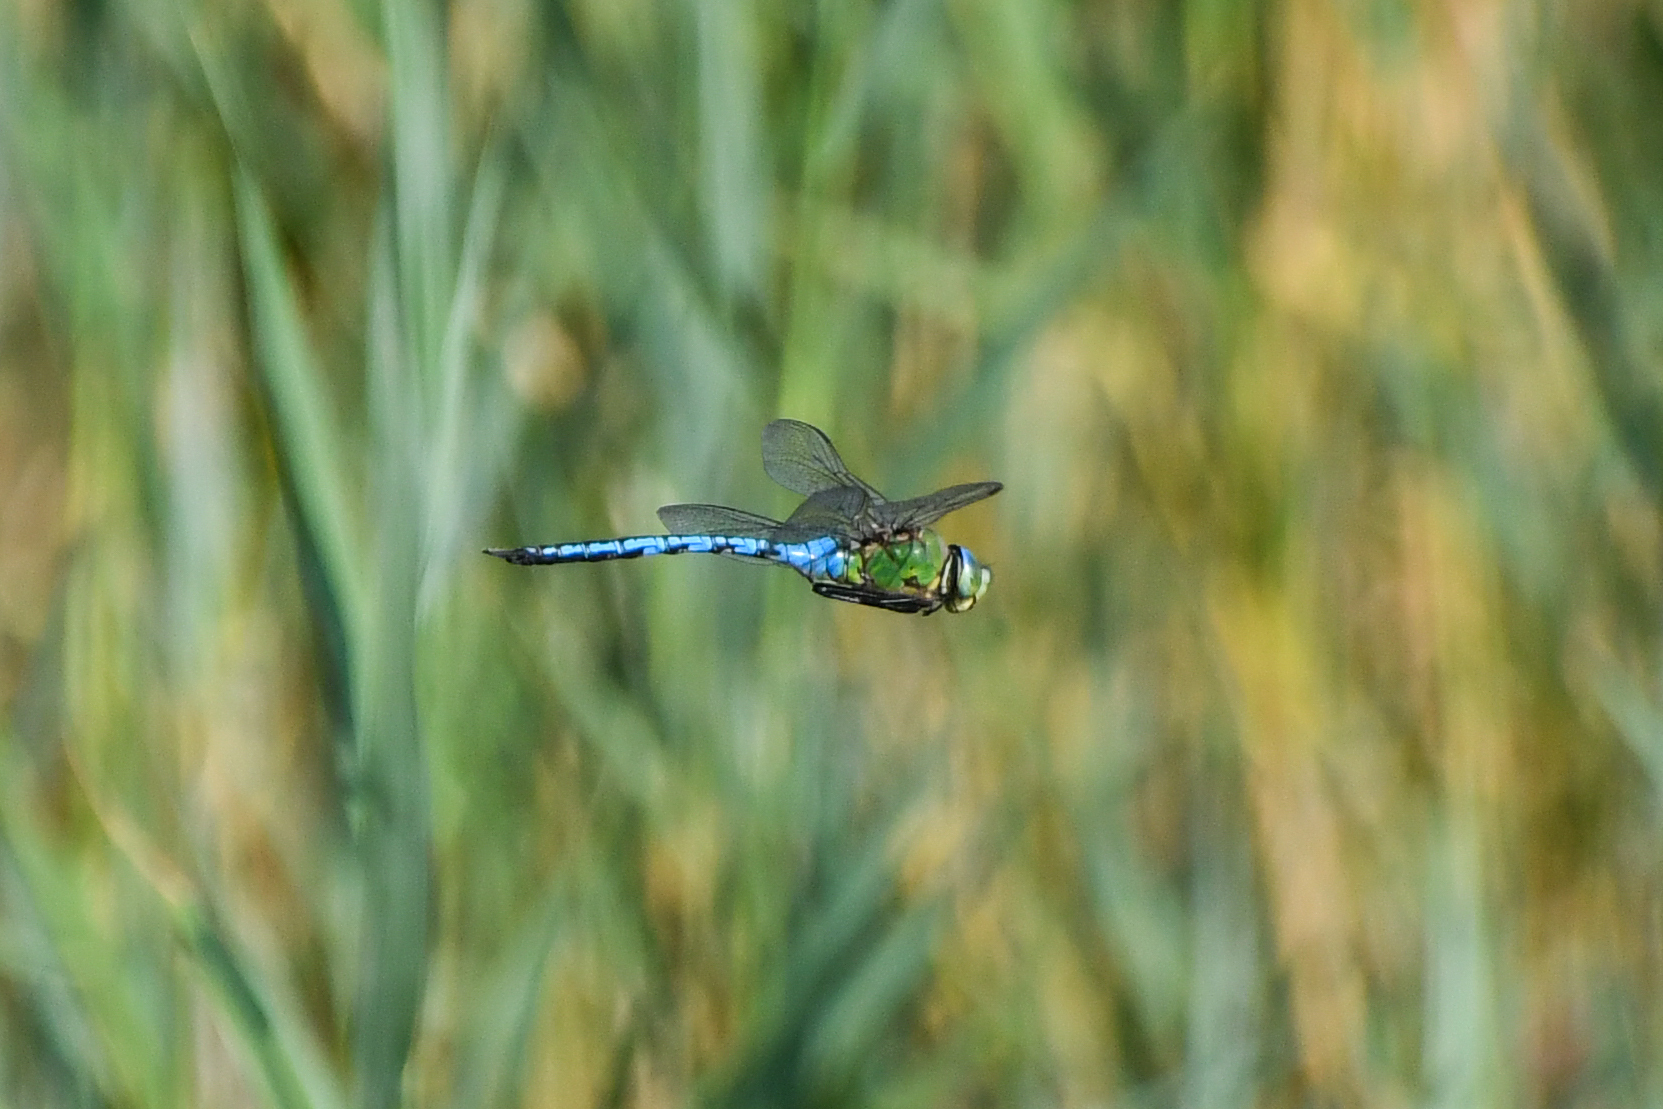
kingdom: Animalia
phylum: Arthropoda
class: Insecta
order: Odonata
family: Aeshnidae
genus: Anax
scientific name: Anax imperator
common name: Emperor dragonfly
